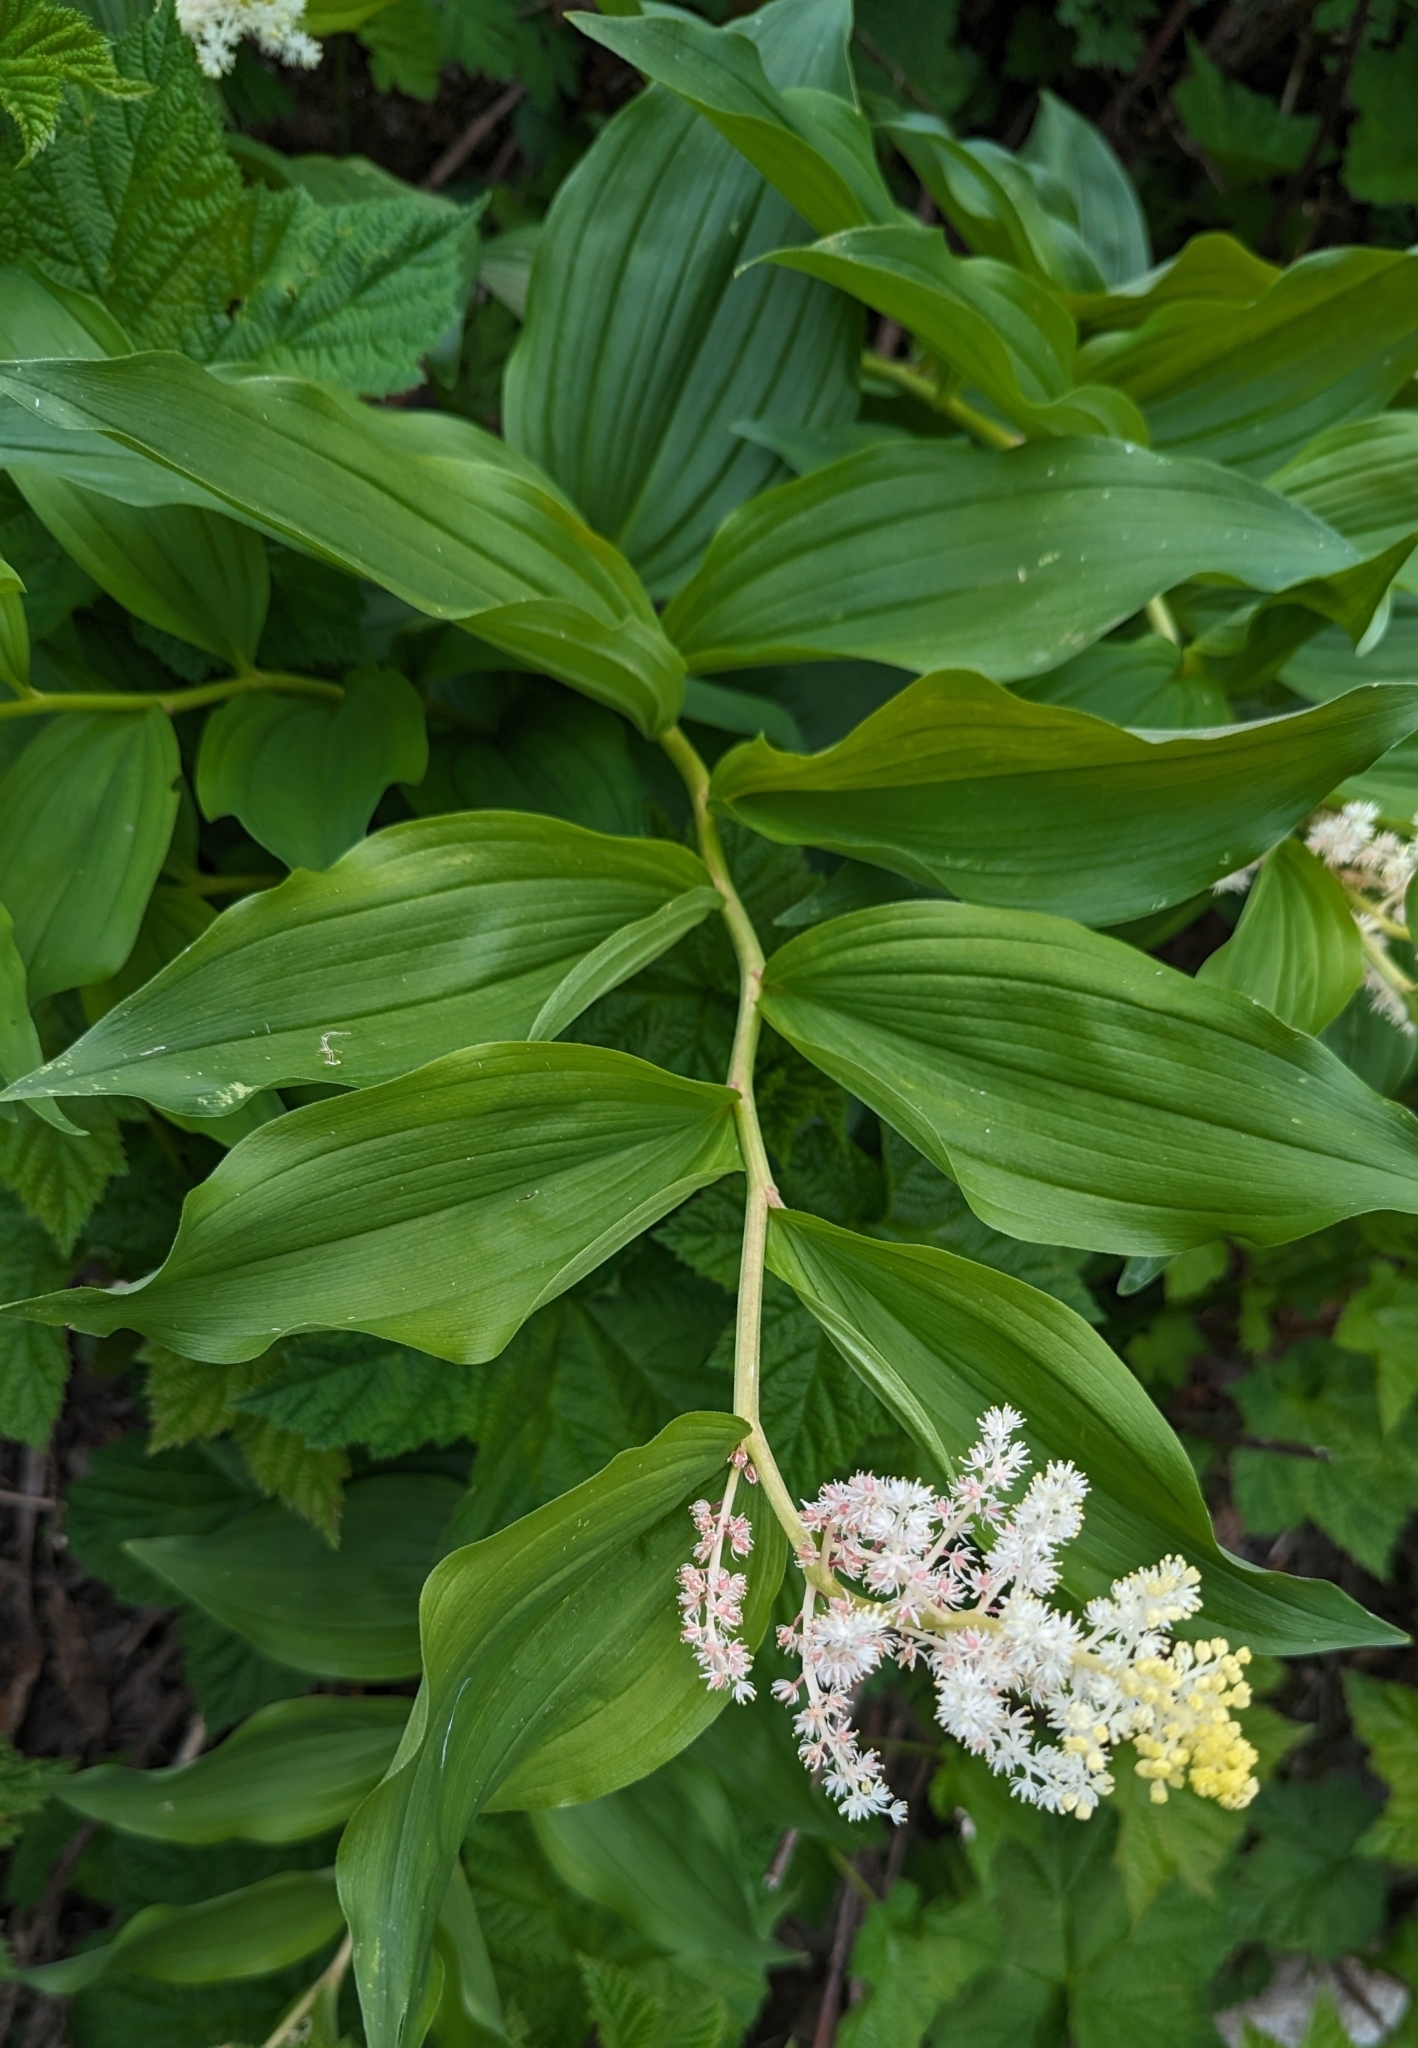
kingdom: Plantae
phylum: Tracheophyta
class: Liliopsida
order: Asparagales
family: Asparagaceae
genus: Maianthemum
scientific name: Maianthemum racemosum
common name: False spikenard
